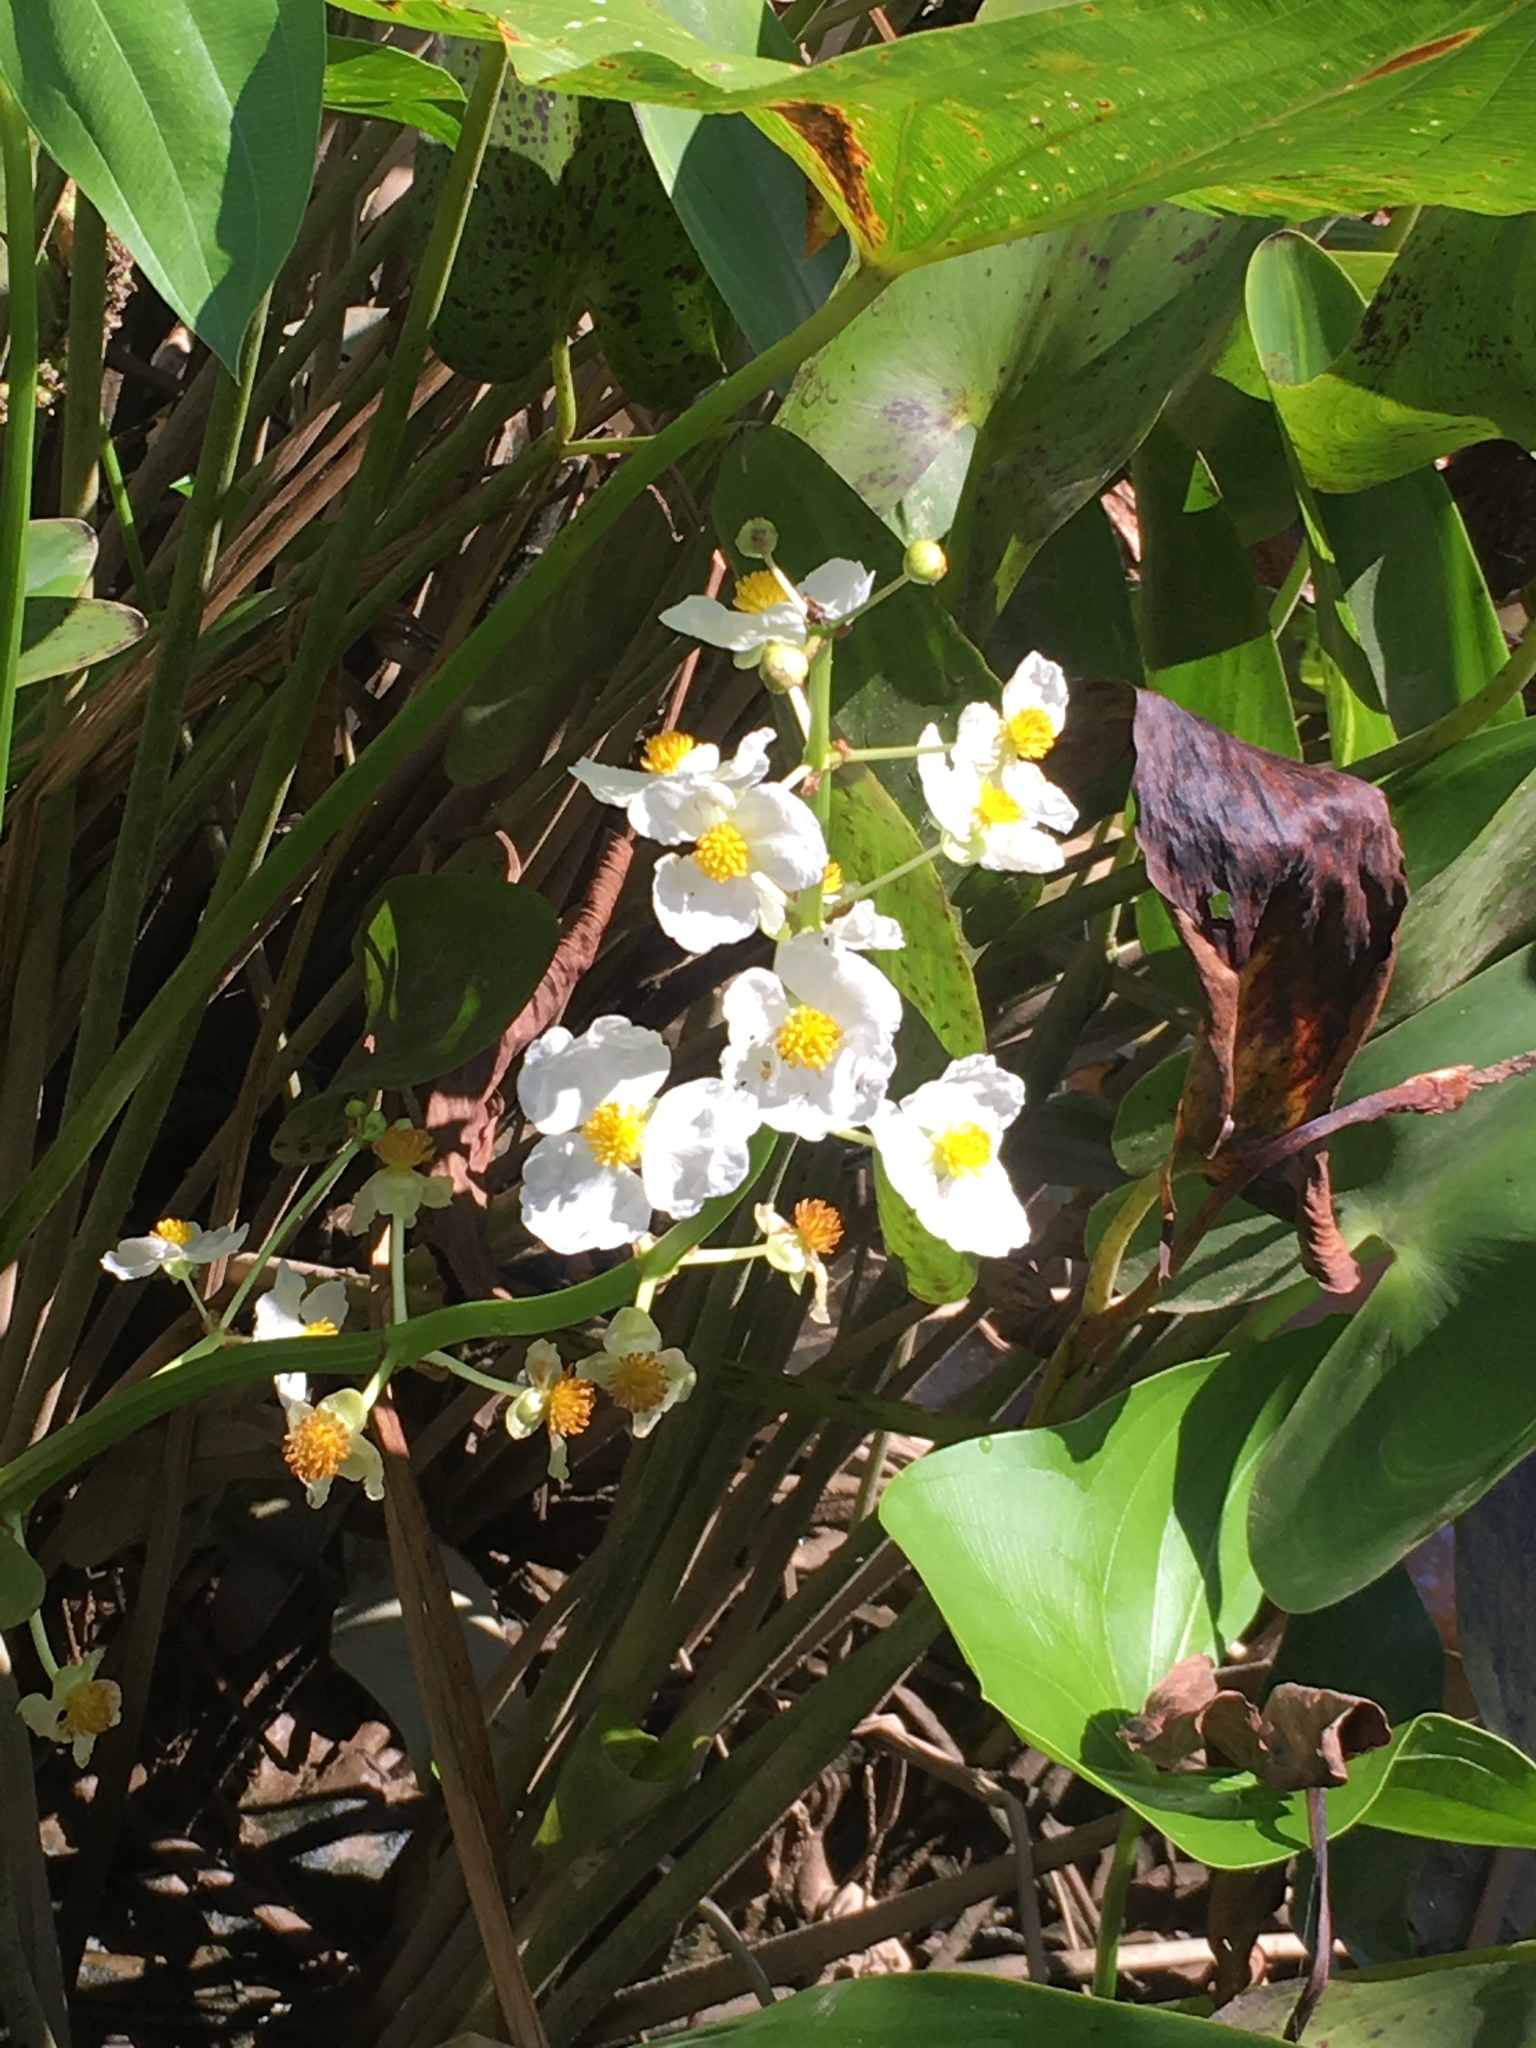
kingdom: Plantae
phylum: Tracheophyta
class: Liliopsida
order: Alismatales
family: Alismataceae
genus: Sagittaria
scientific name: Sagittaria latifolia
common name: Duck-potato
